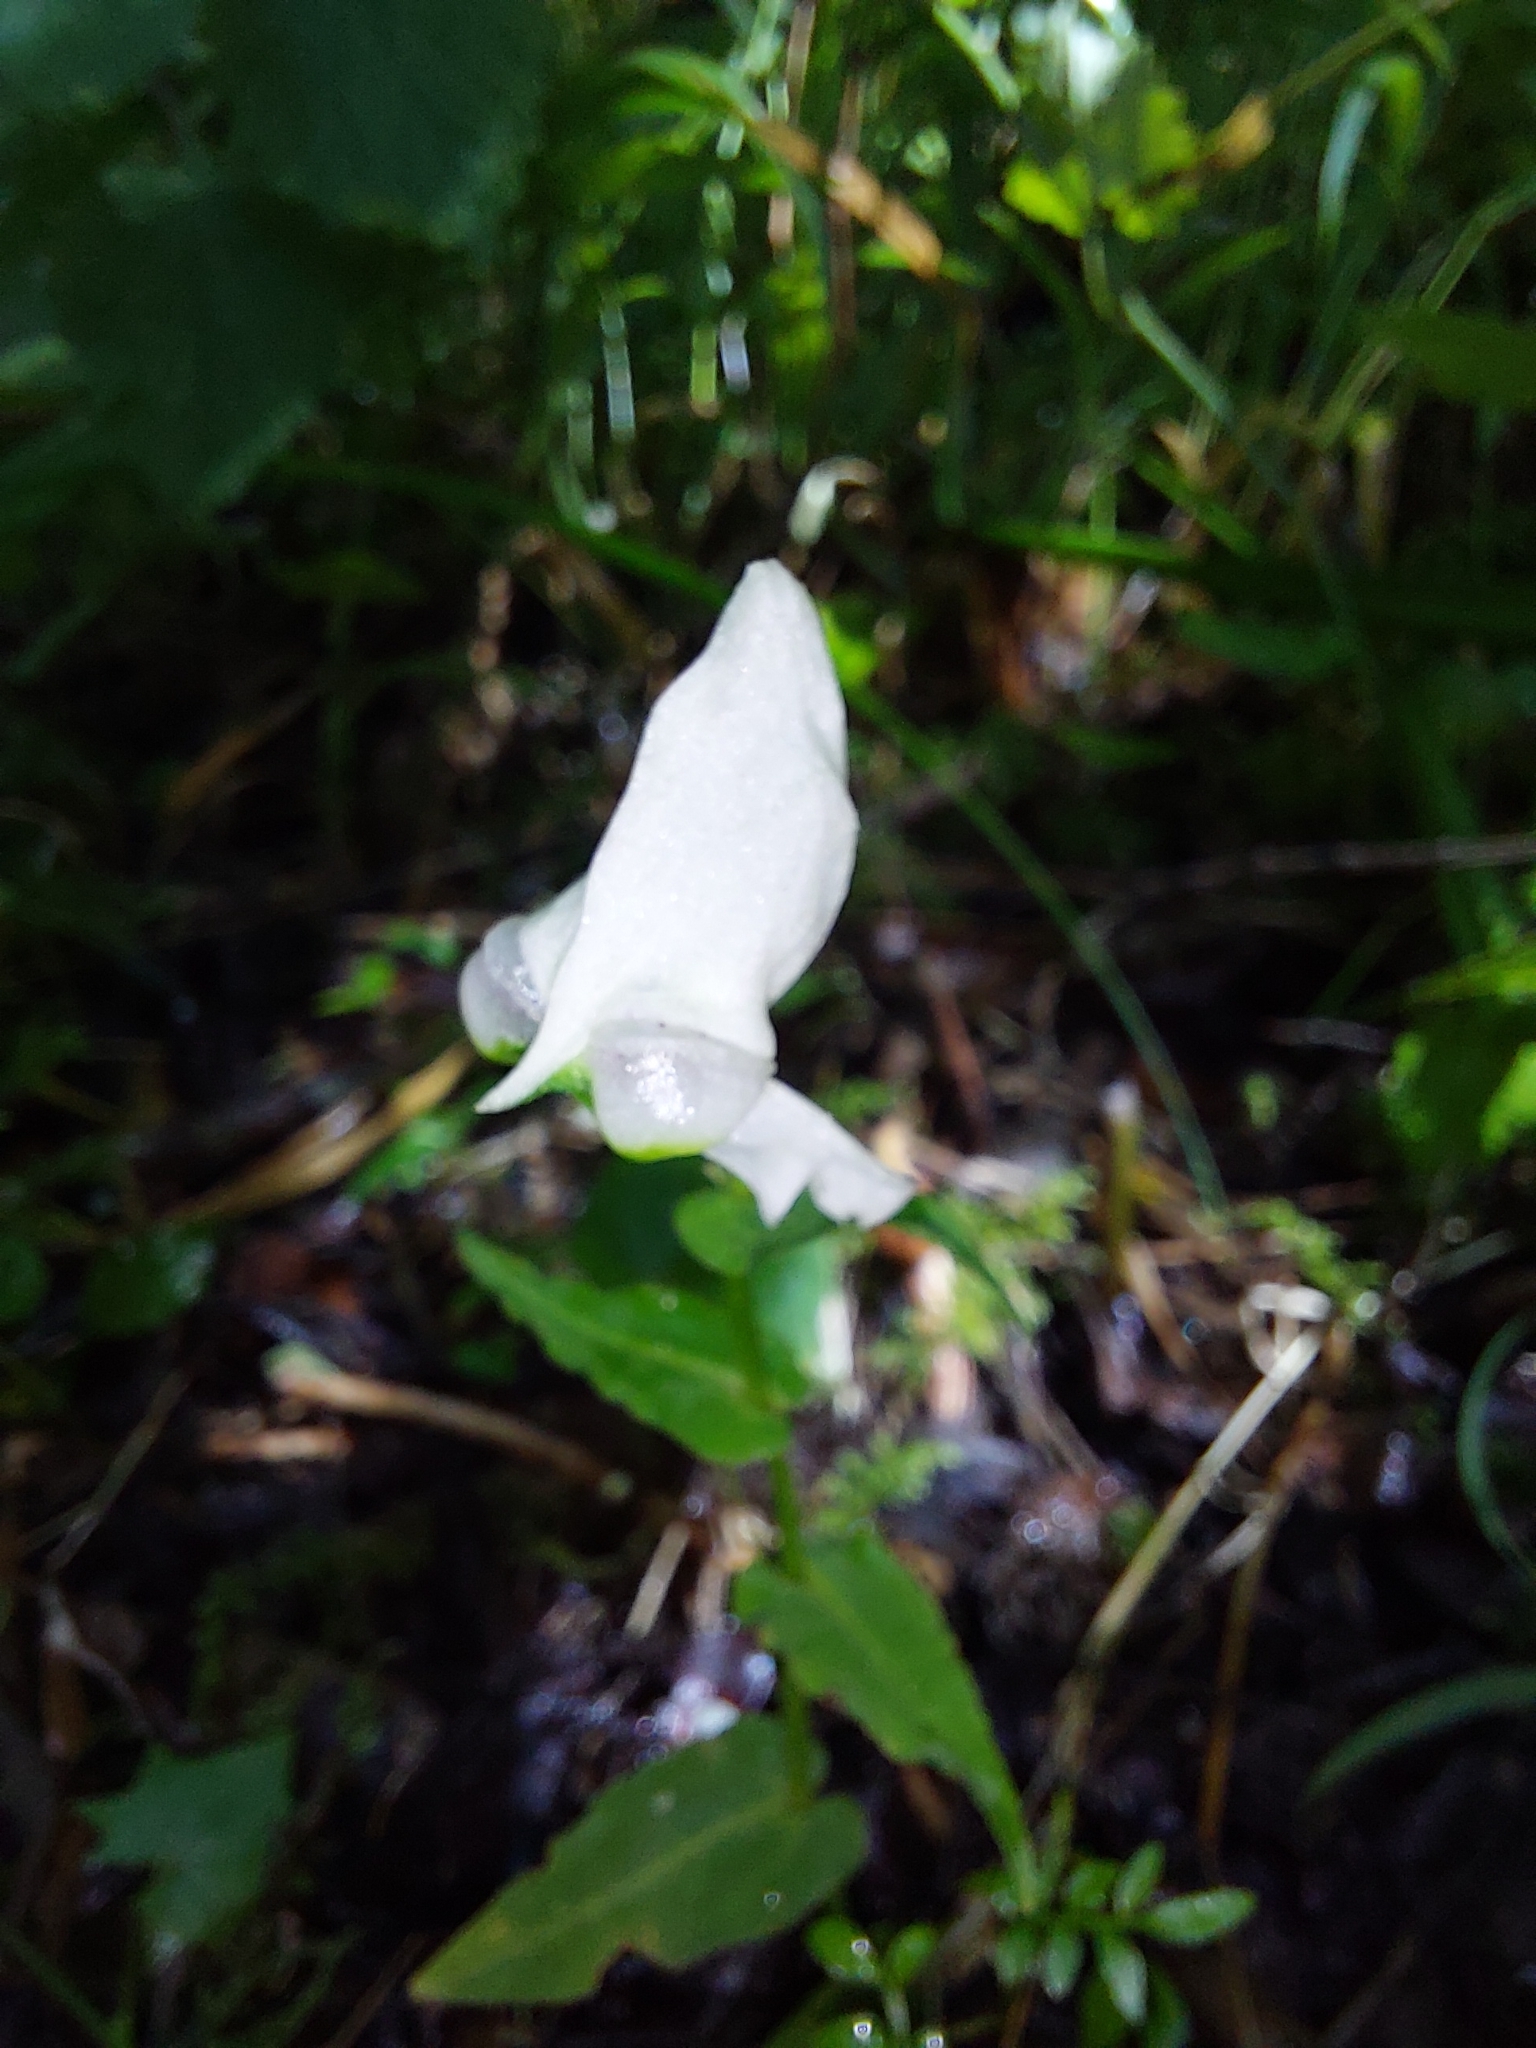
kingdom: Plantae
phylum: Tracheophyta
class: Liliopsida
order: Asparagales
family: Orchidaceae
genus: Disperis
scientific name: Disperis fanniniae
